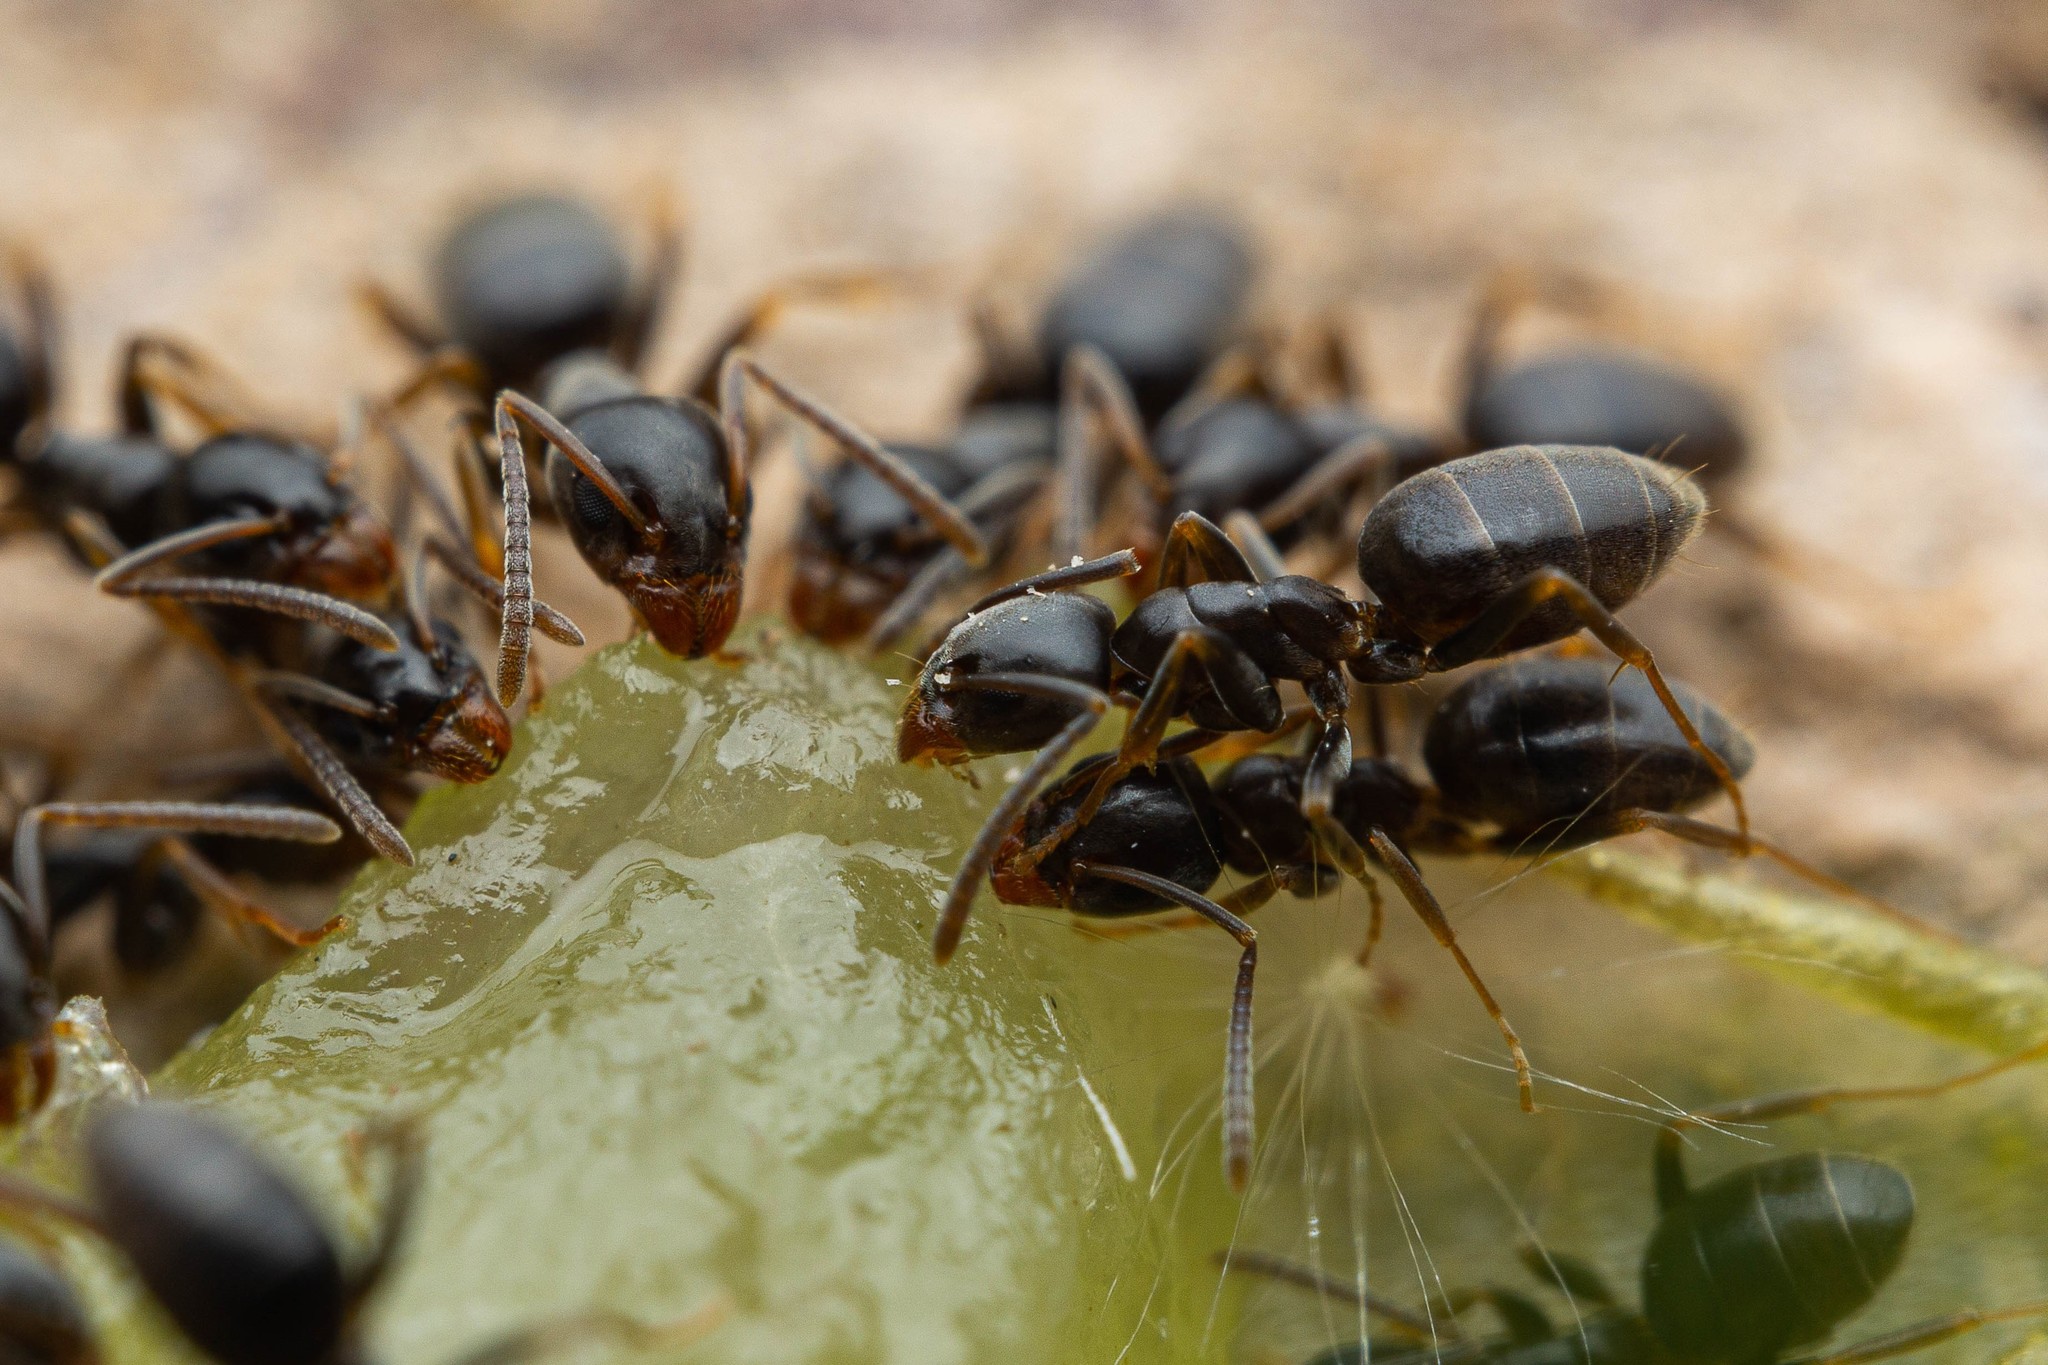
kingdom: Animalia
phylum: Arthropoda
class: Insecta
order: Hymenoptera
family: Formicidae
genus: Tapinoma
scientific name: Tapinoma sessile
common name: Odorous house ant
